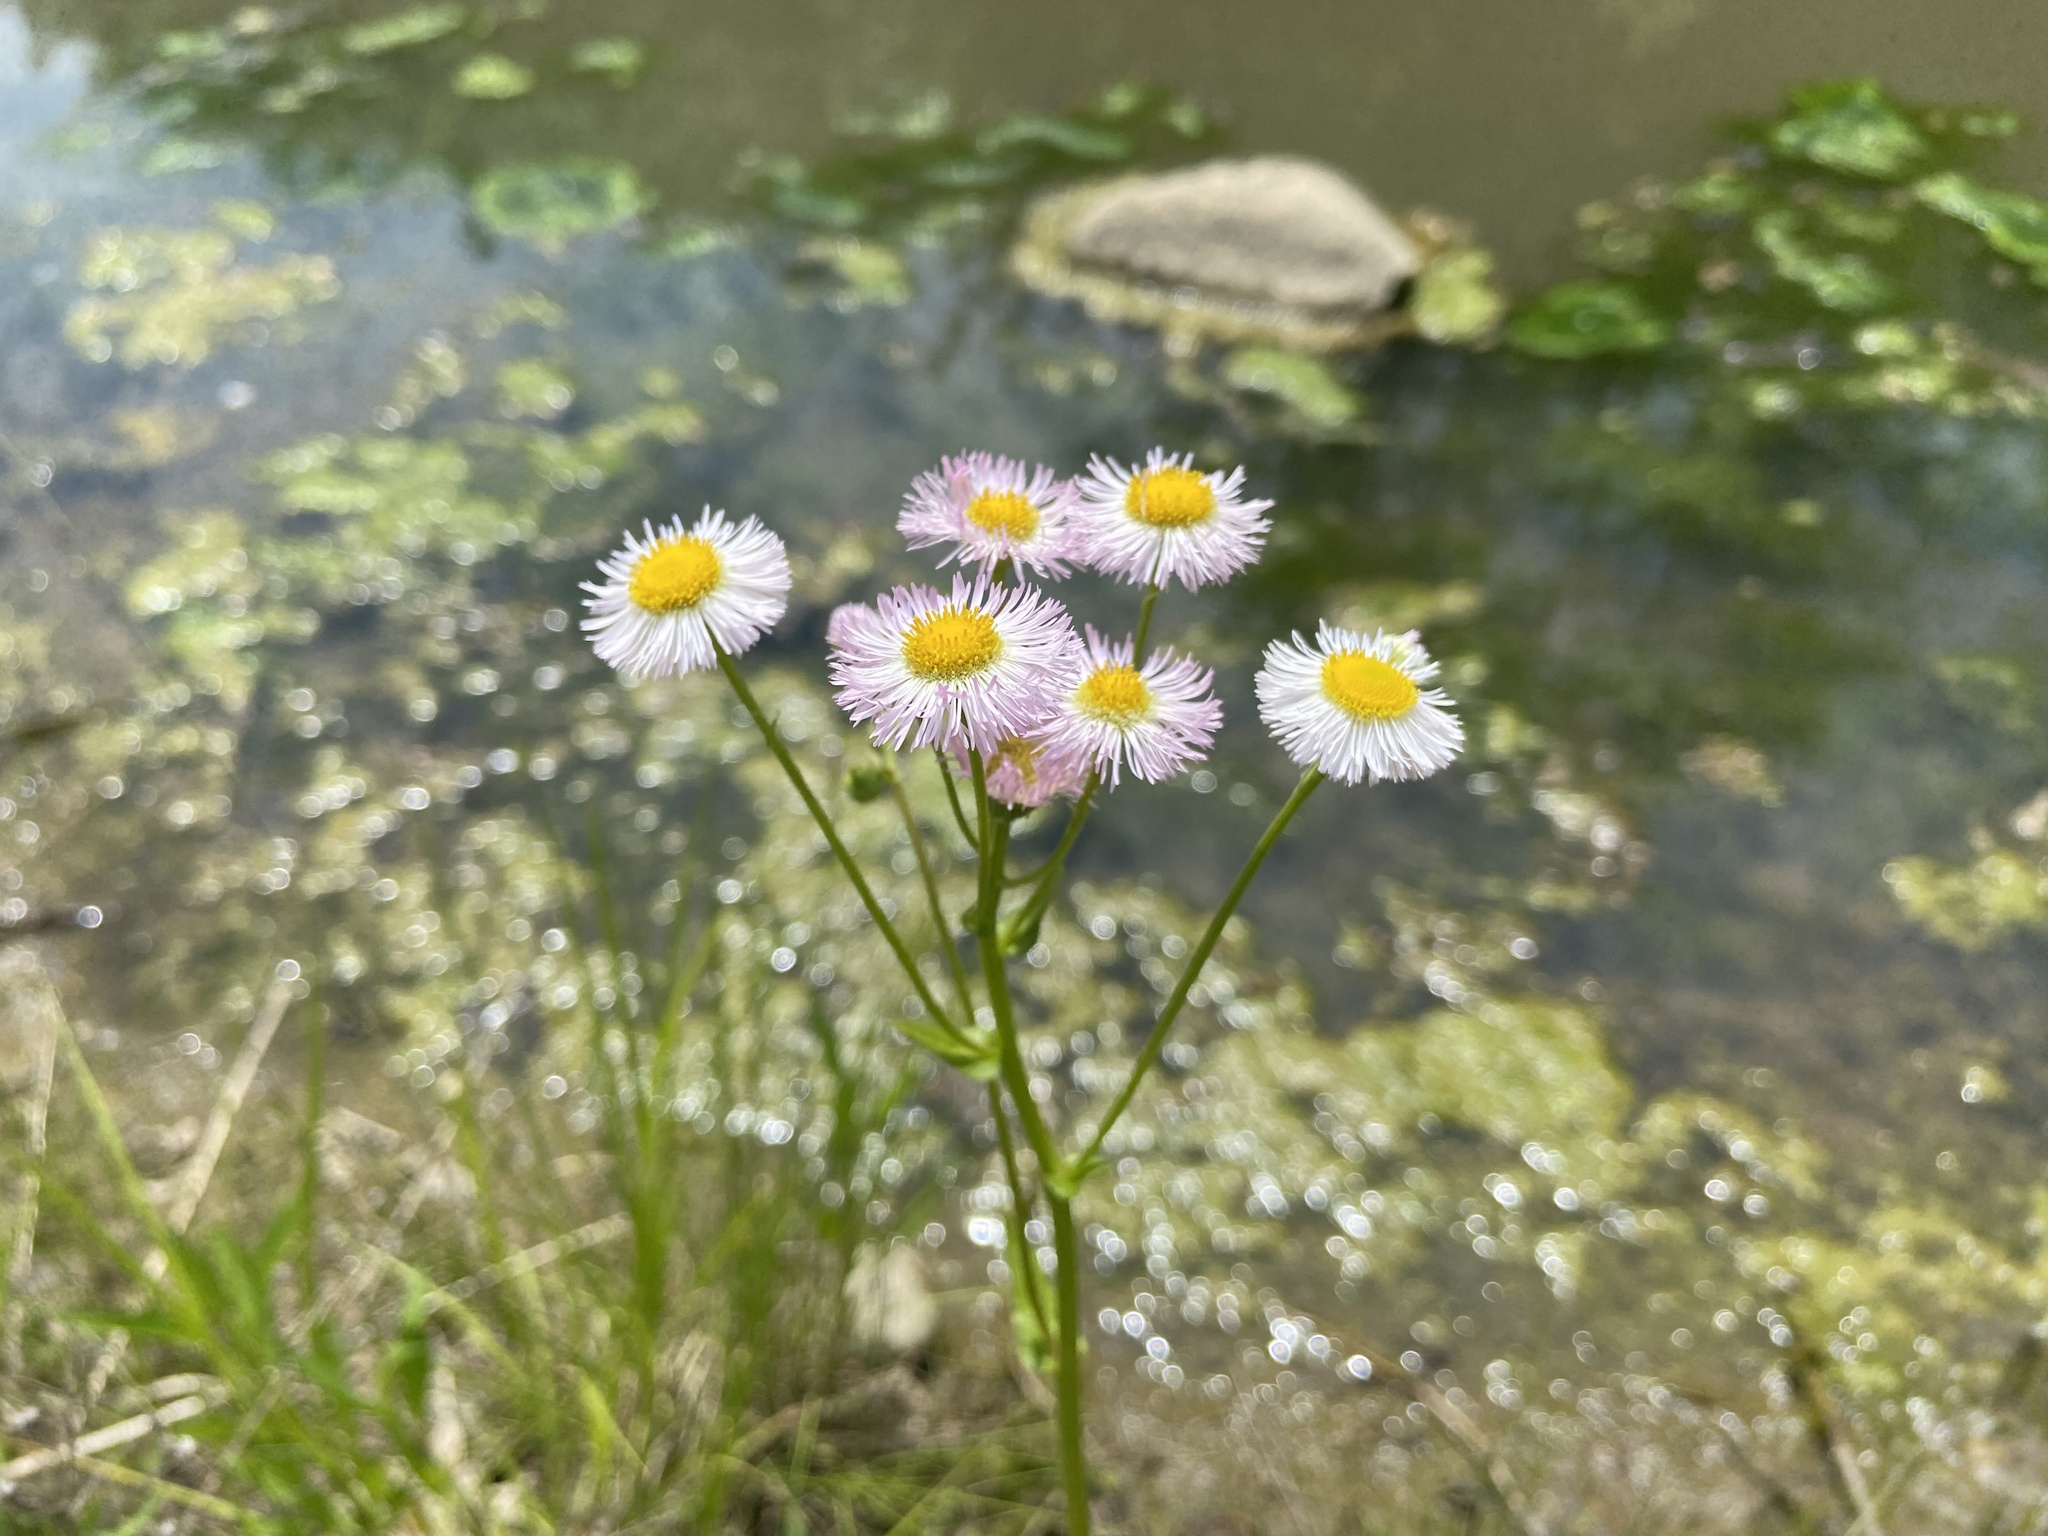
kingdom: Plantae
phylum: Tracheophyta
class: Magnoliopsida
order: Asterales
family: Asteraceae
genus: Erigeron
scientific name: Erigeron philadelphicus
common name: Robin's-plantain
